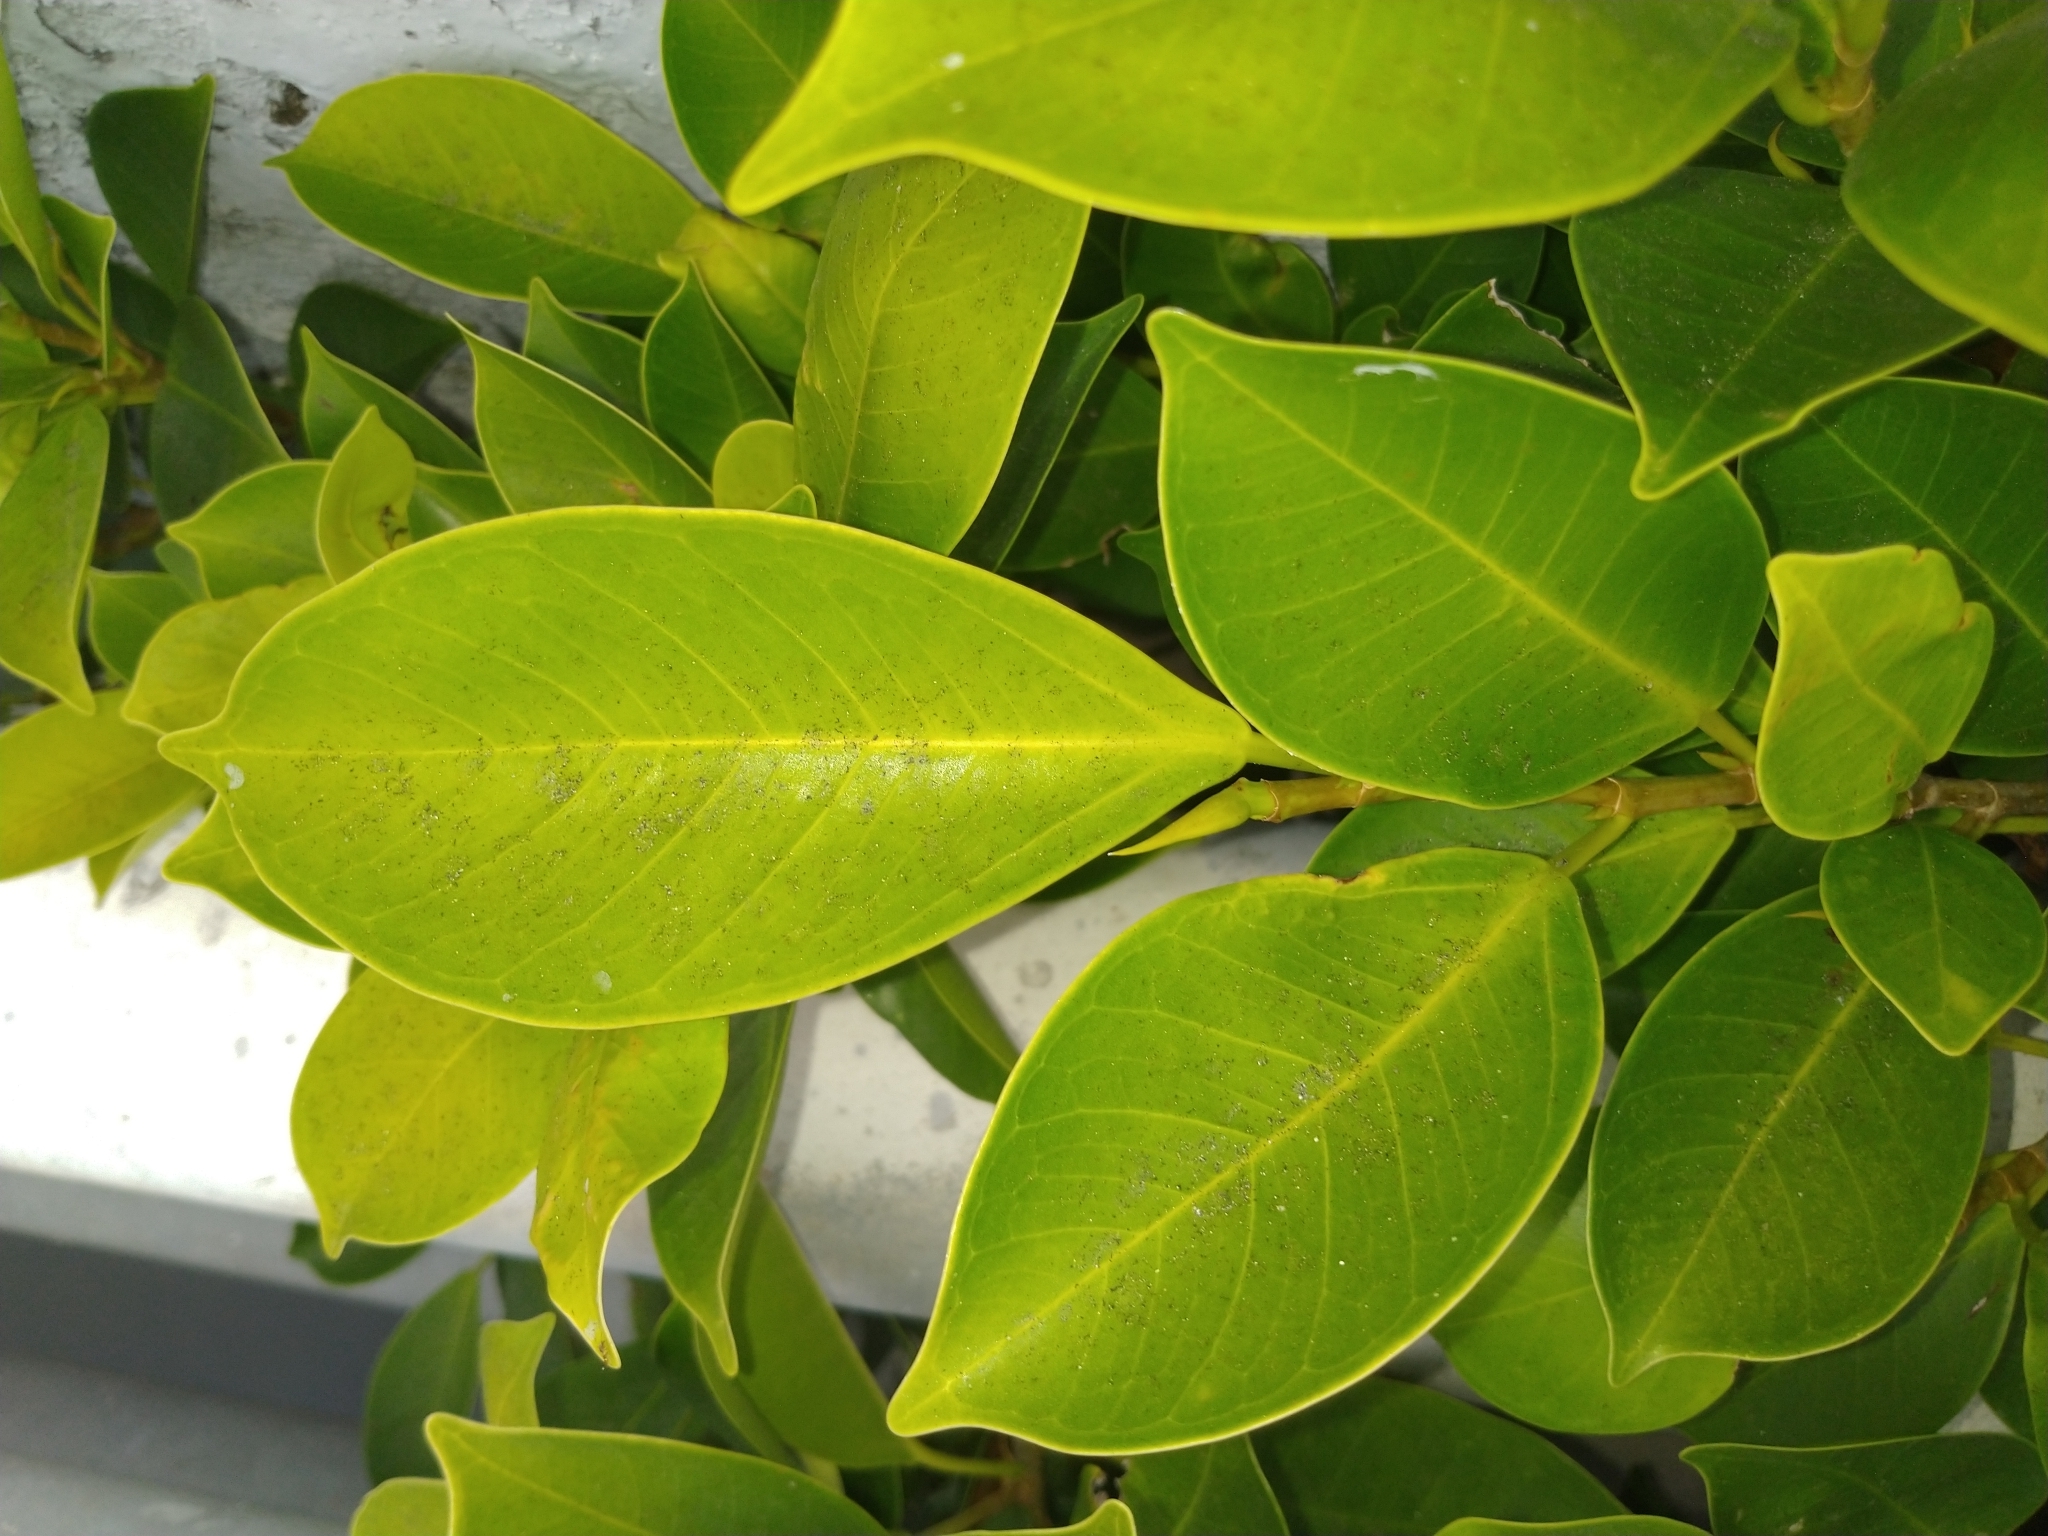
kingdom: Plantae
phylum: Tracheophyta
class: Magnoliopsida
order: Rosales
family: Moraceae
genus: Ficus
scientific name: Ficus microcarpa
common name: Chinese banyan
